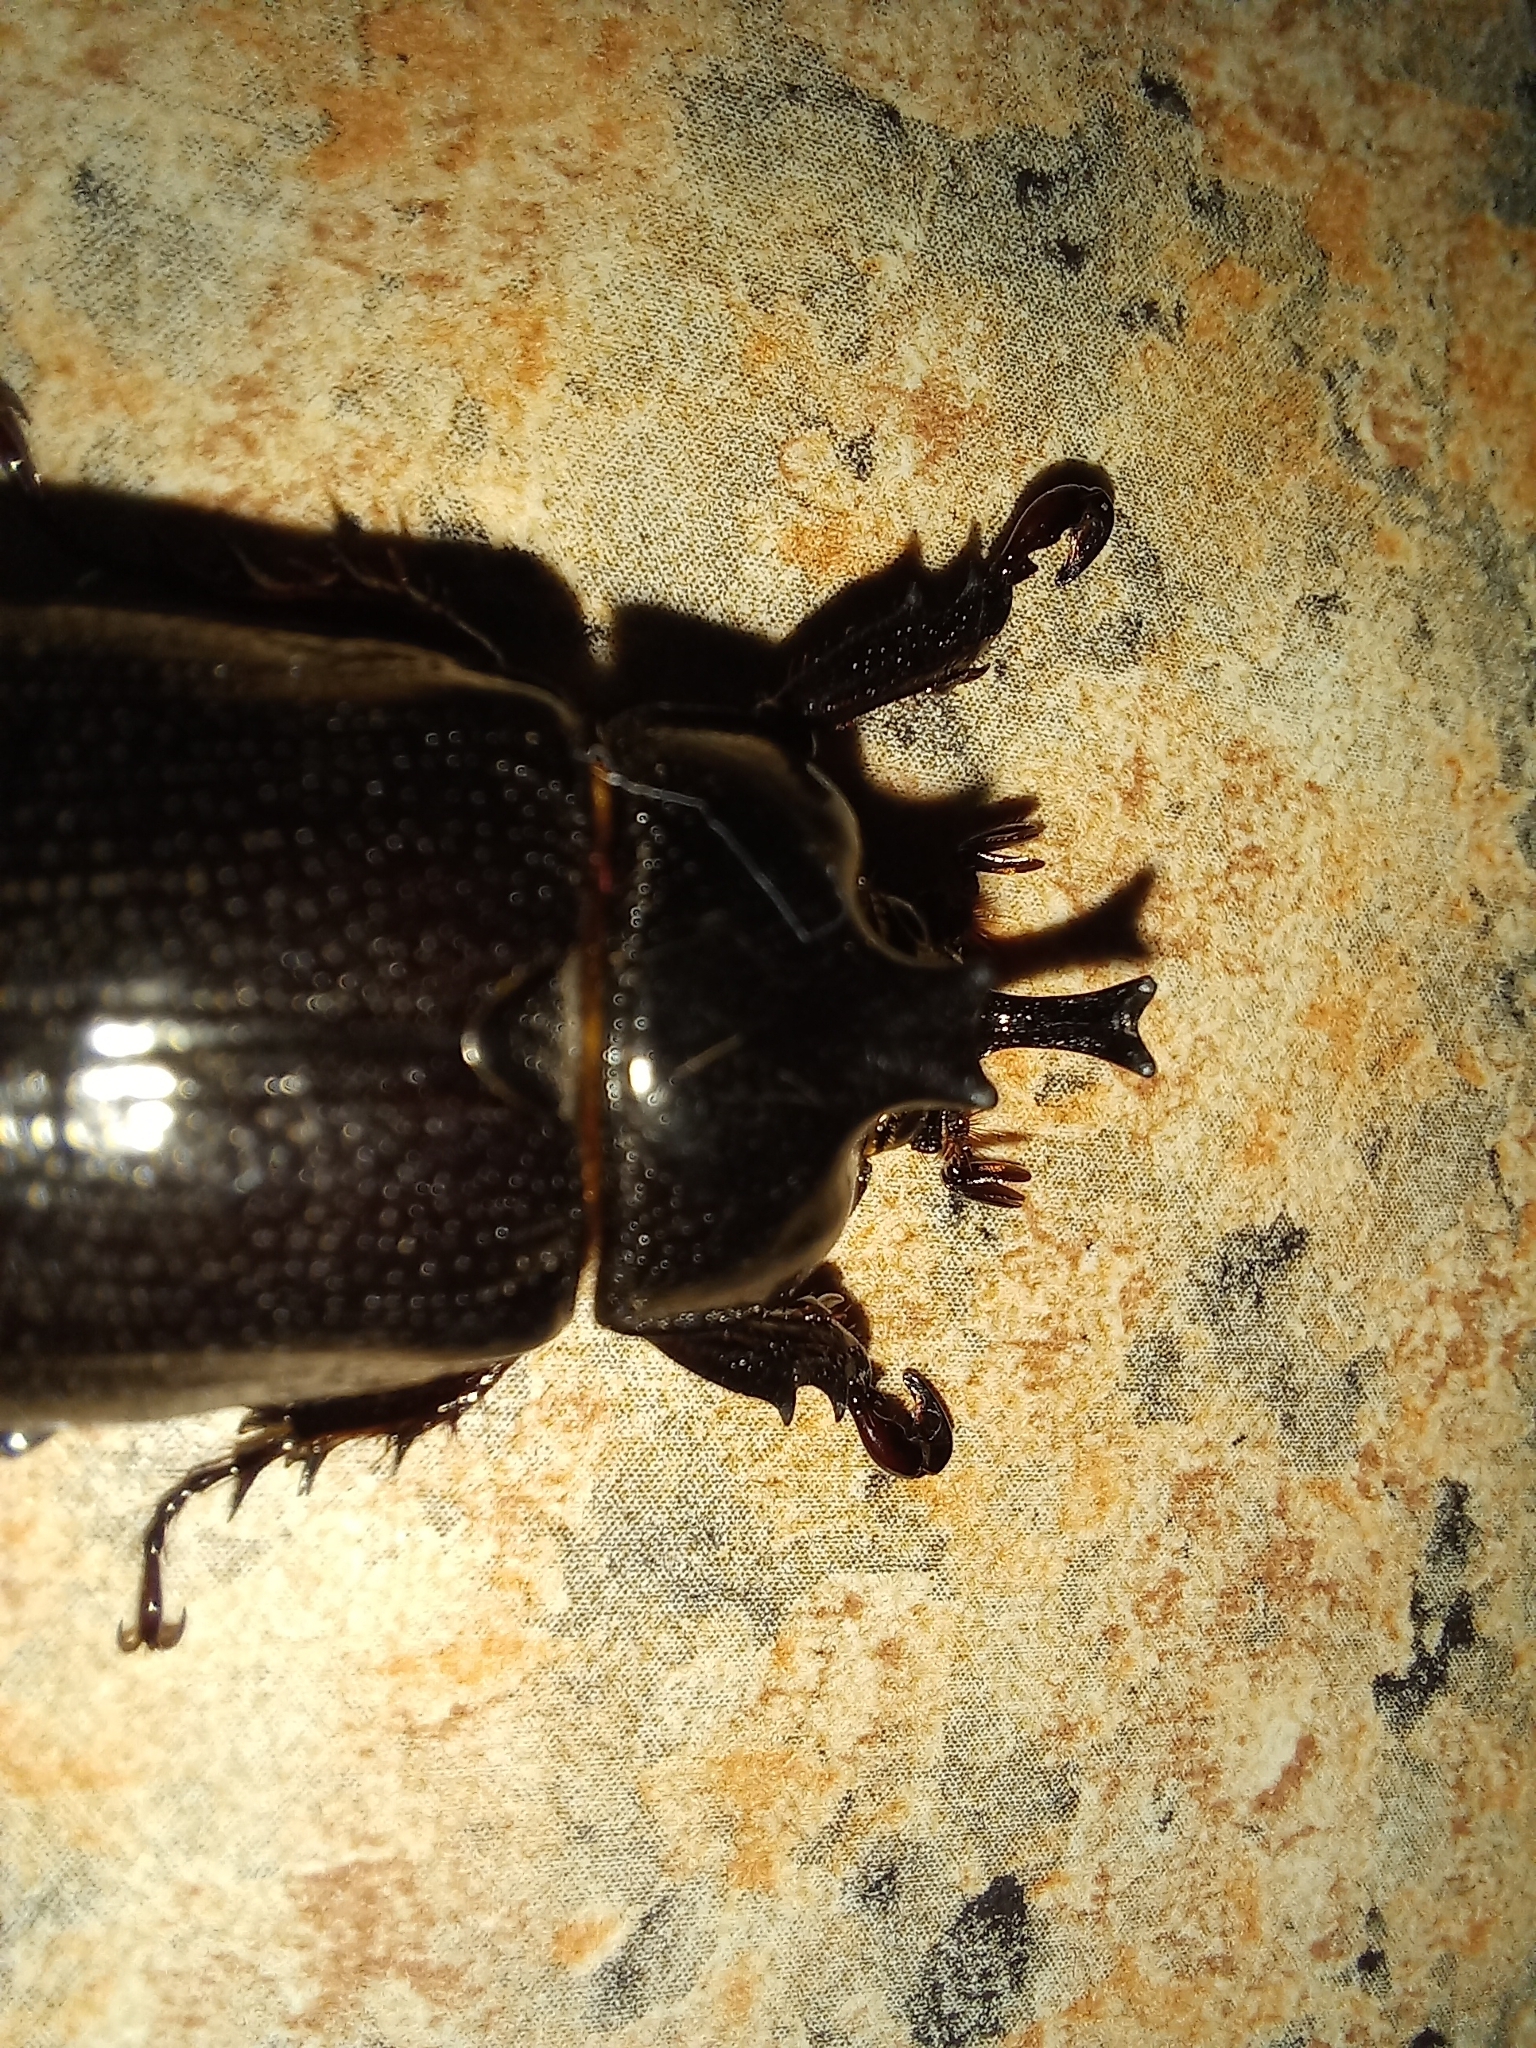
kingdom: Animalia
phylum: Arthropoda
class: Insecta
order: Coleoptera
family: Scarabaeidae
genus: Cyphonistes
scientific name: Cyphonistes vallatus
